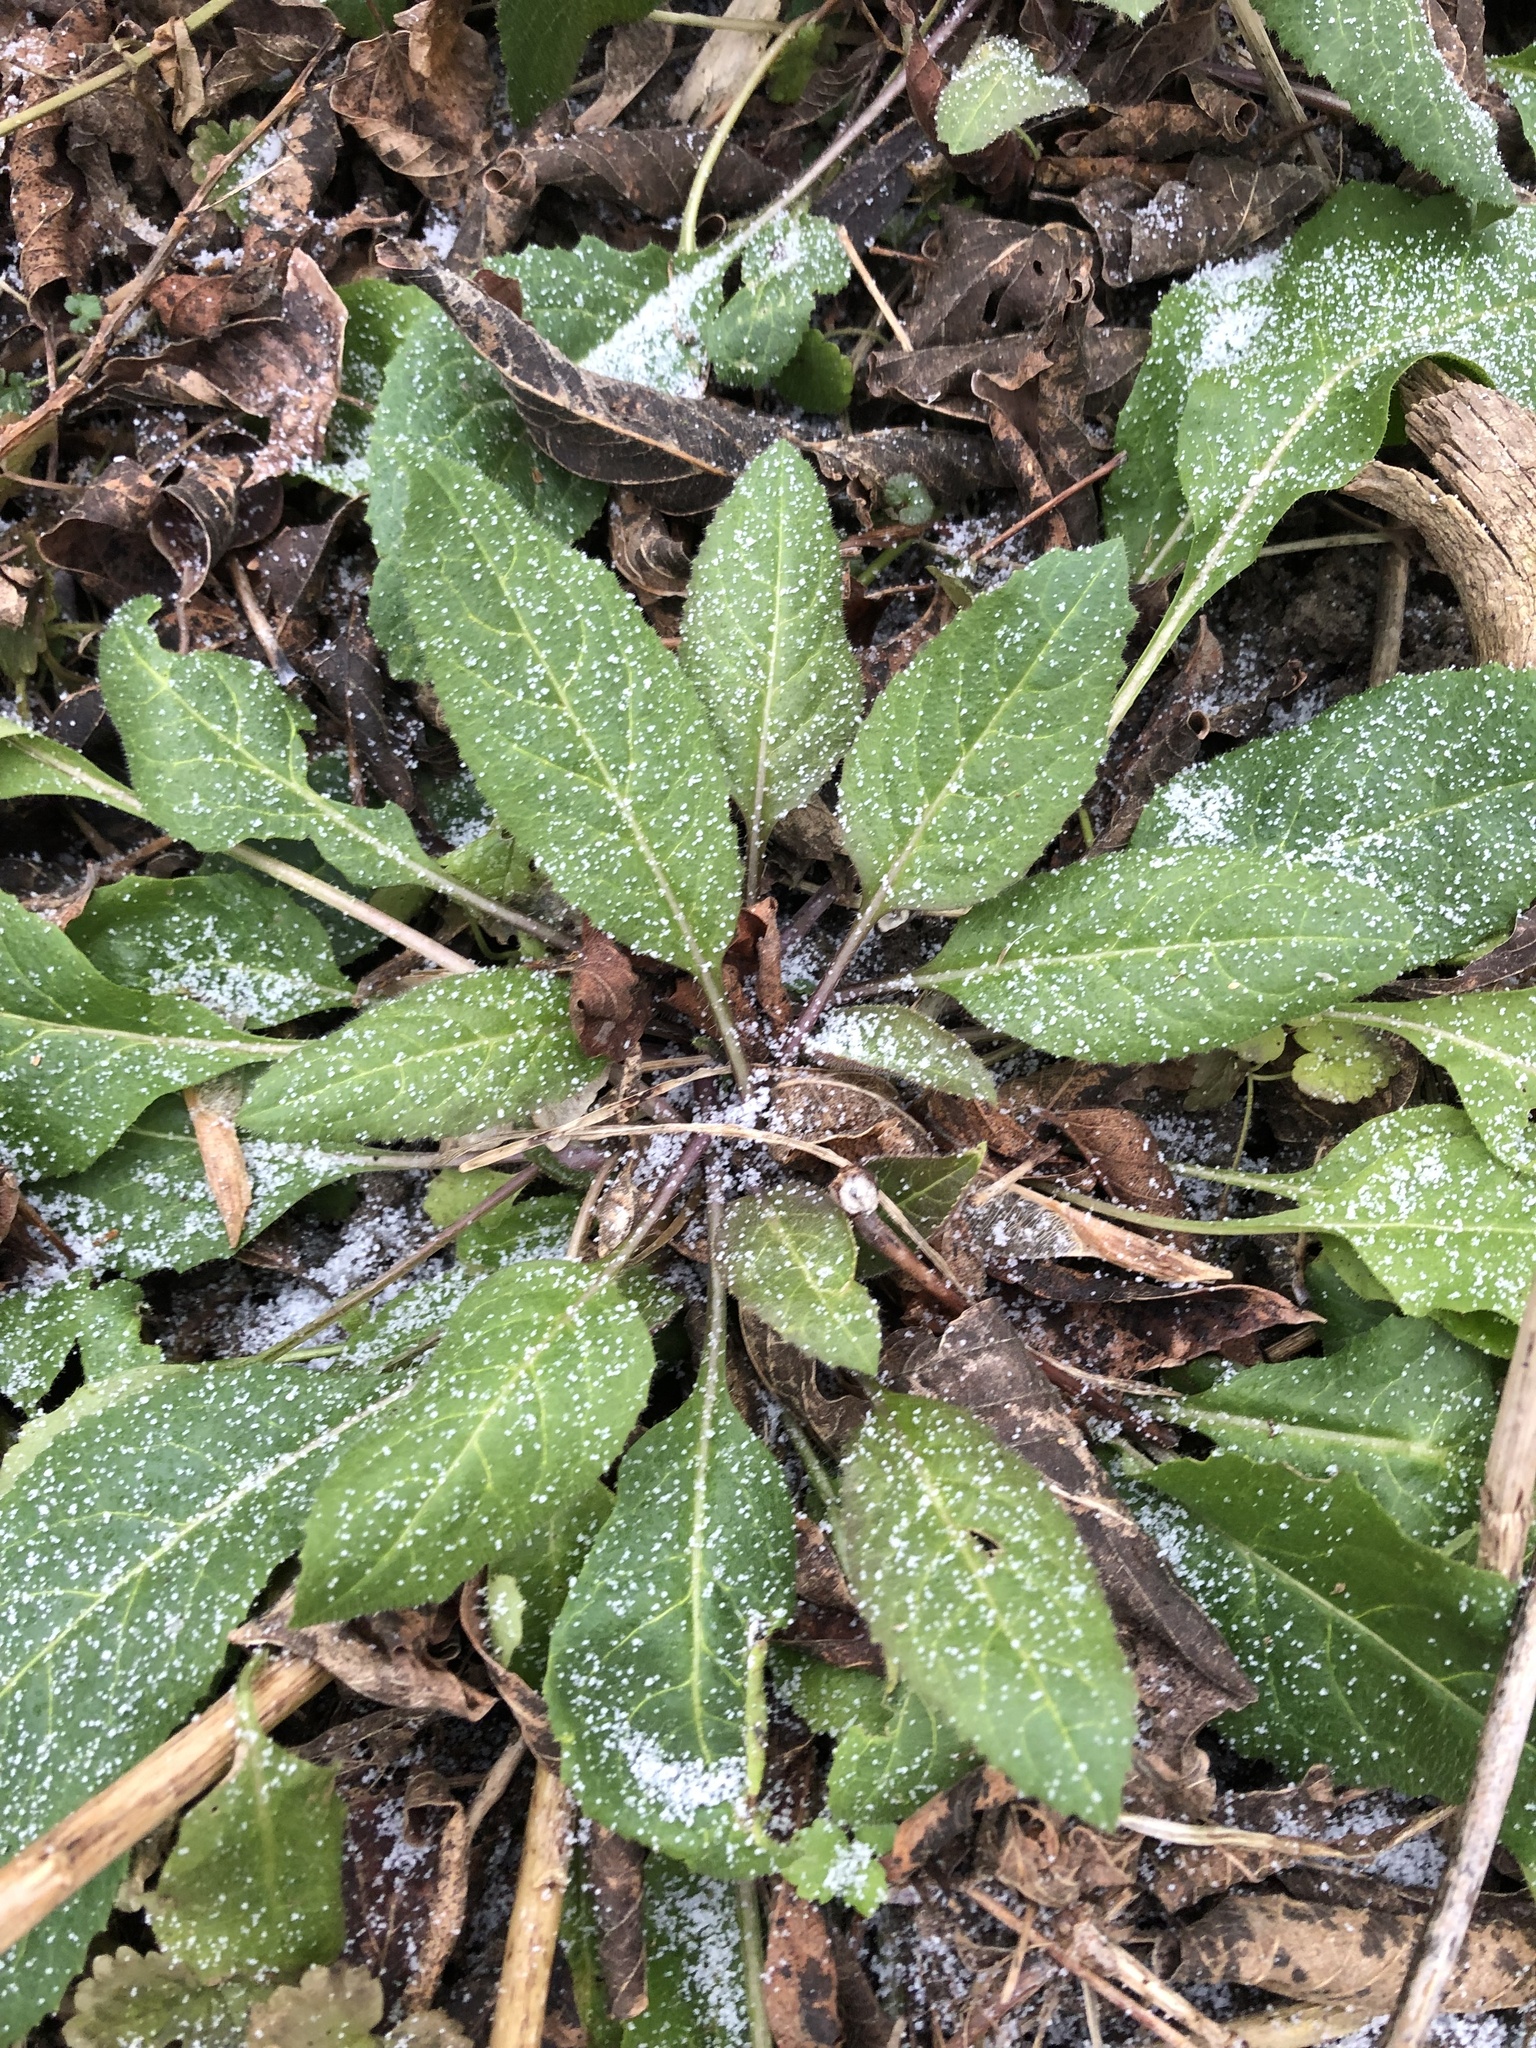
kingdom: Plantae
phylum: Tracheophyta
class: Magnoliopsida
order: Brassicales
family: Brassicaceae
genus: Hesperis
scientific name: Hesperis matronalis
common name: Dame's-violet
